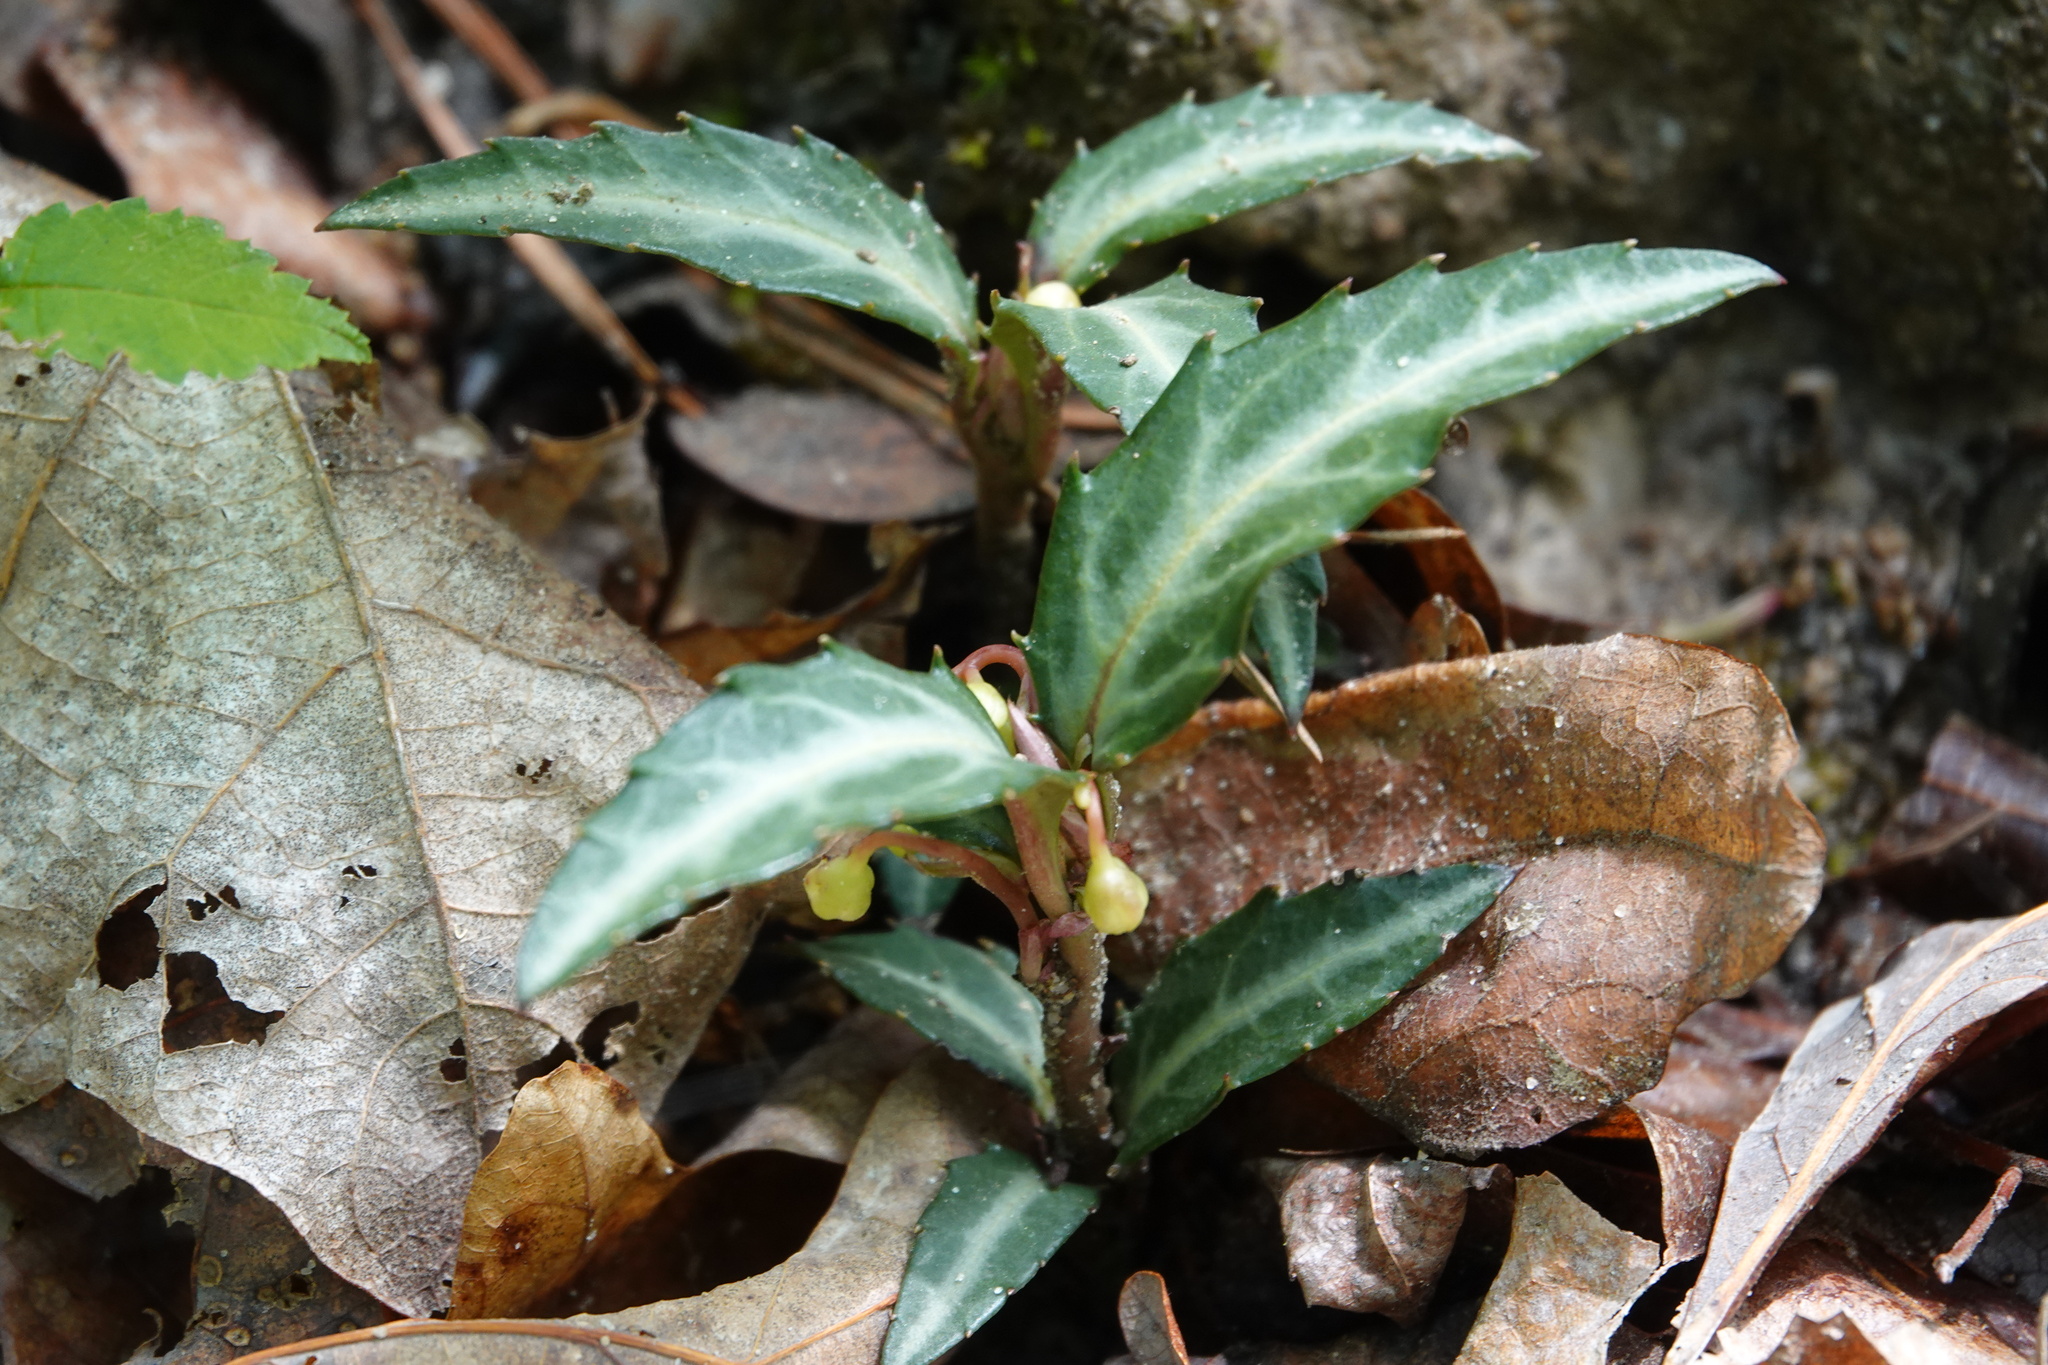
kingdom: Plantae
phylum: Tracheophyta
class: Magnoliopsida
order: Ericales
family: Ericaceae
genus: Chimaphila
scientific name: Chimaphila maculata
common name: Spotted pipsissewa
